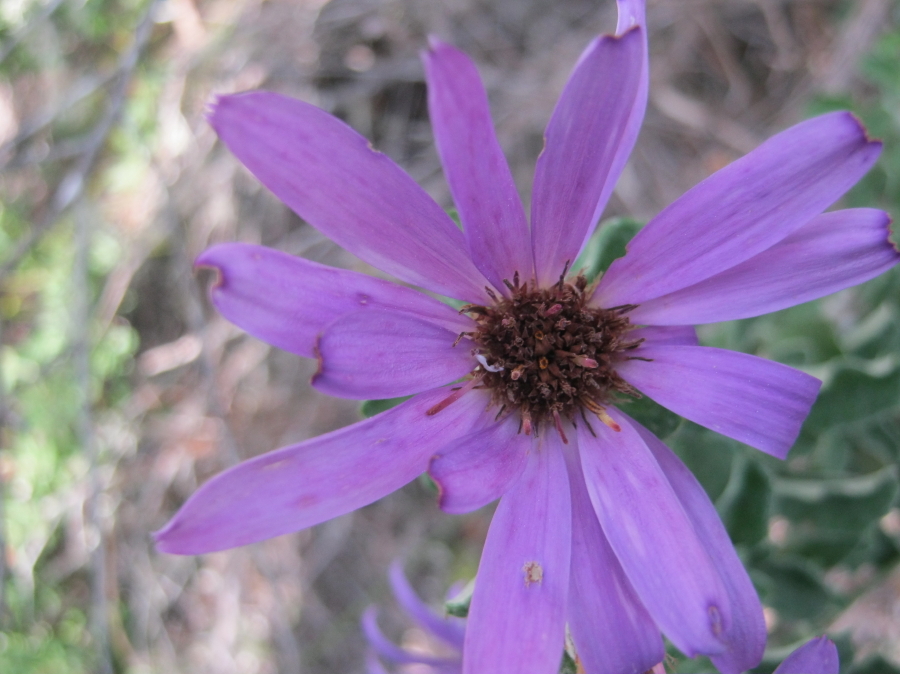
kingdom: Plantae
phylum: Tracheophyta
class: Magnoliopsida
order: Asterales
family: Asteraceae
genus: Printzia
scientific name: Printzia polifolia
